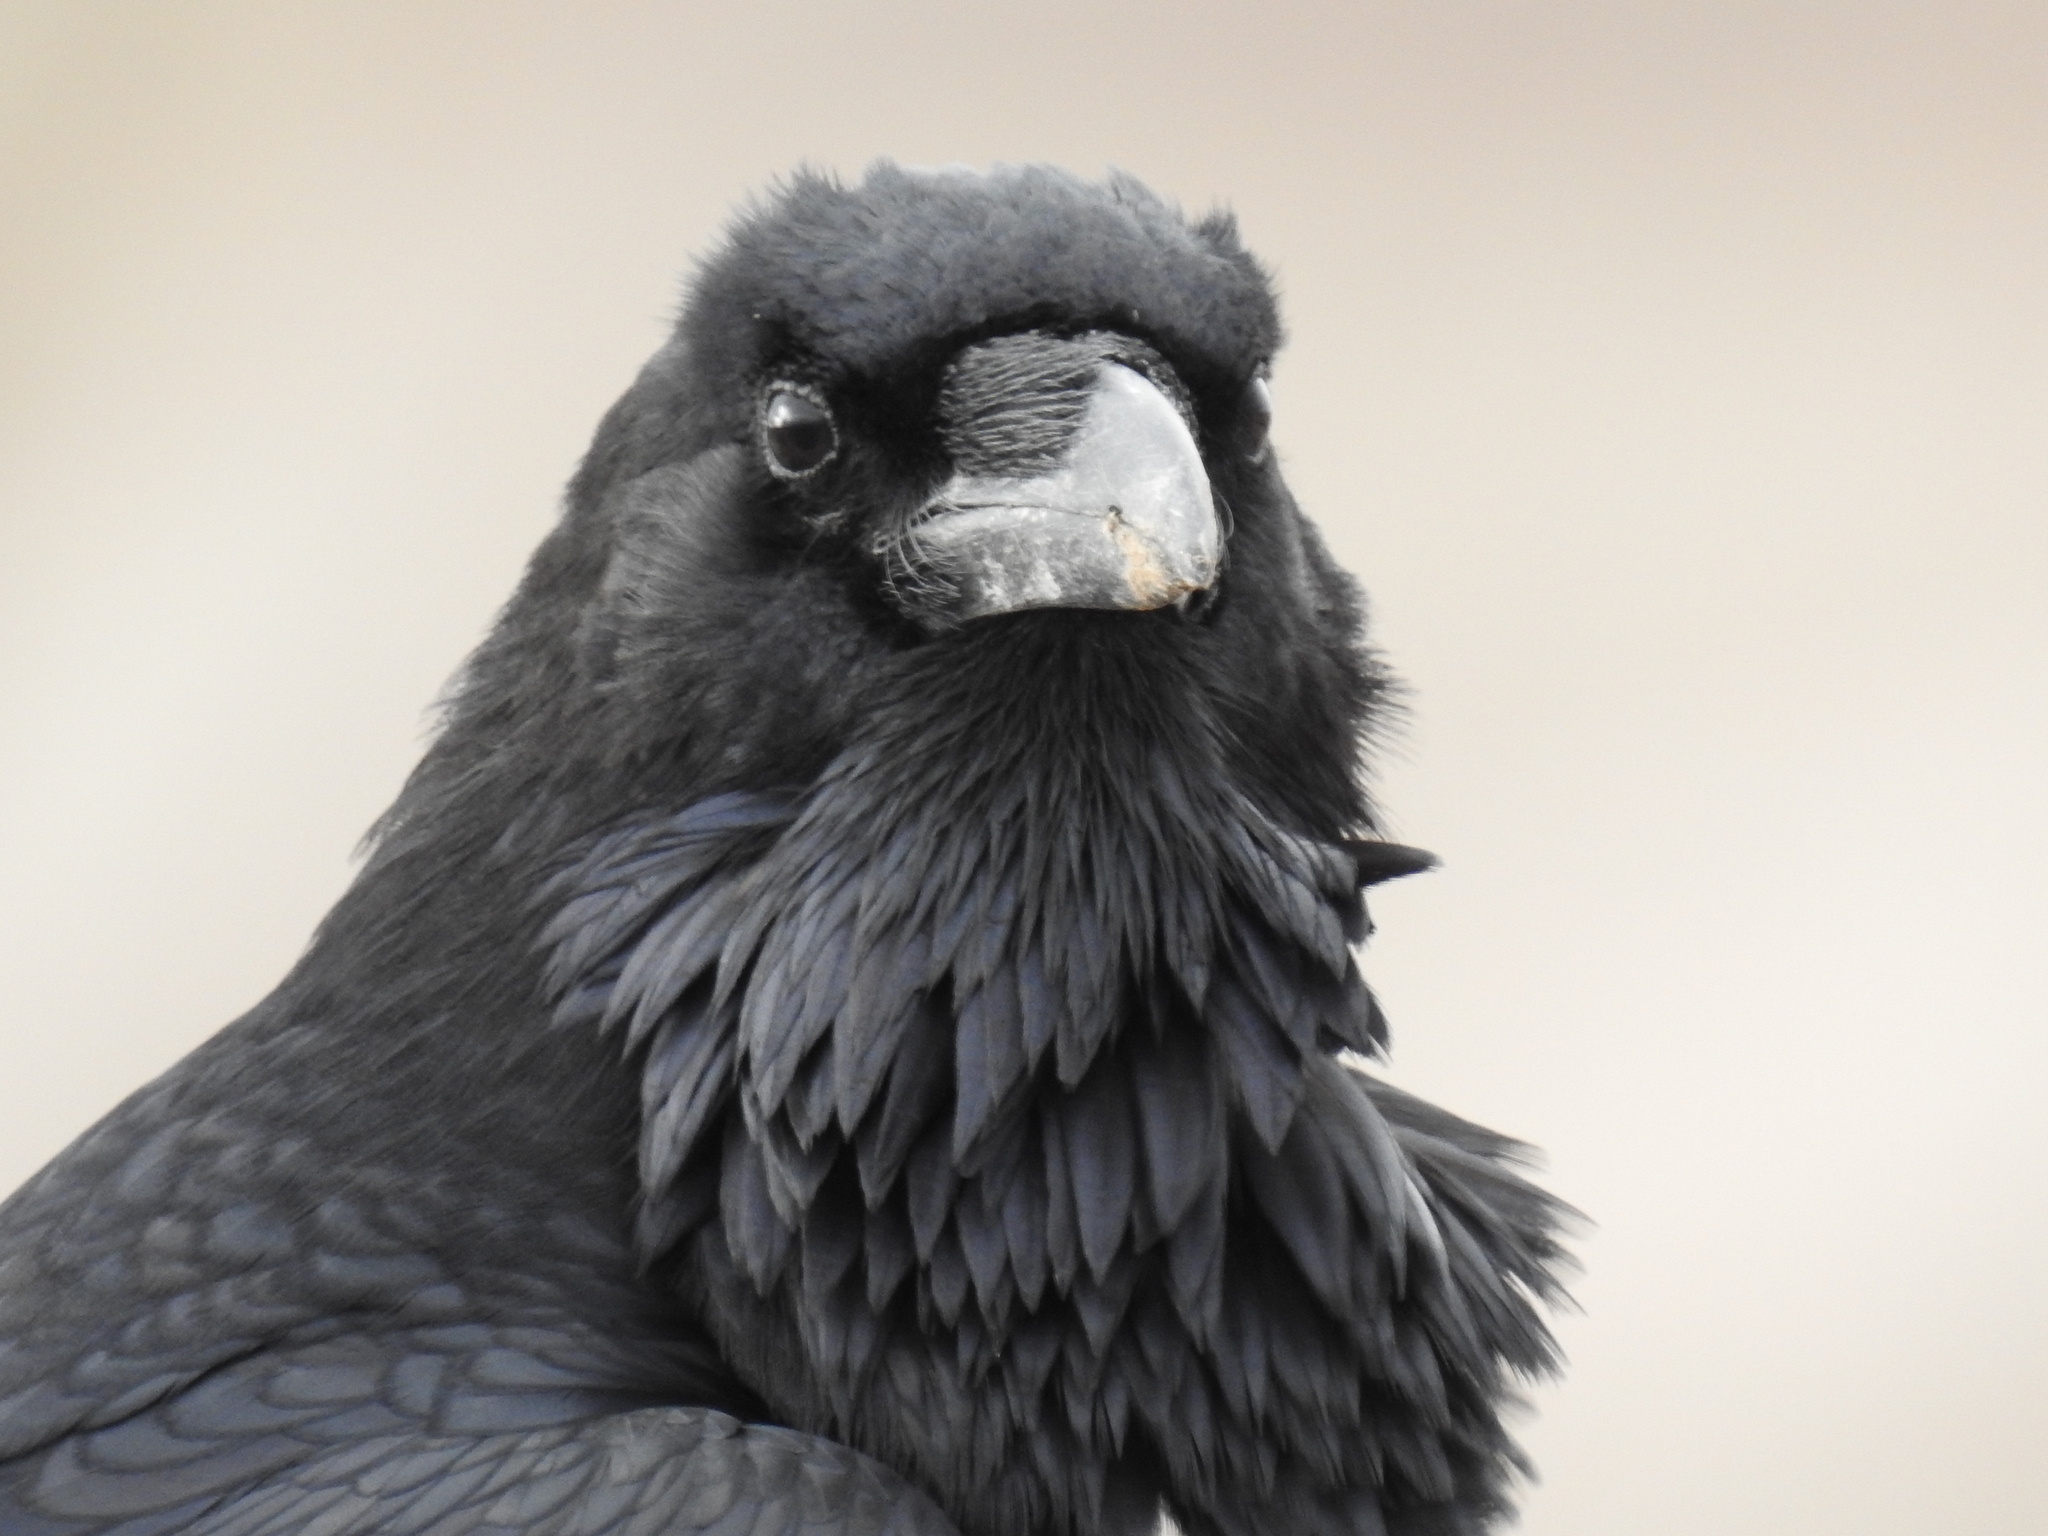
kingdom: Animalia
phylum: Chordata
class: Aves
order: Passeriformes
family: Corvidae
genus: Corvus
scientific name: Corvus corax
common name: Common raven
